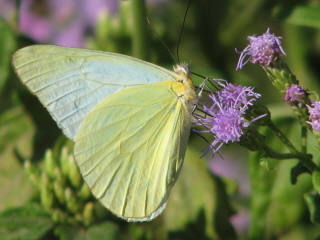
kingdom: Animalia
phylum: Arthropoda
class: Insecta
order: Lepidoptera
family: Pieridae
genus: Melete
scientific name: Melete lycimnia
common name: Common melwhite
